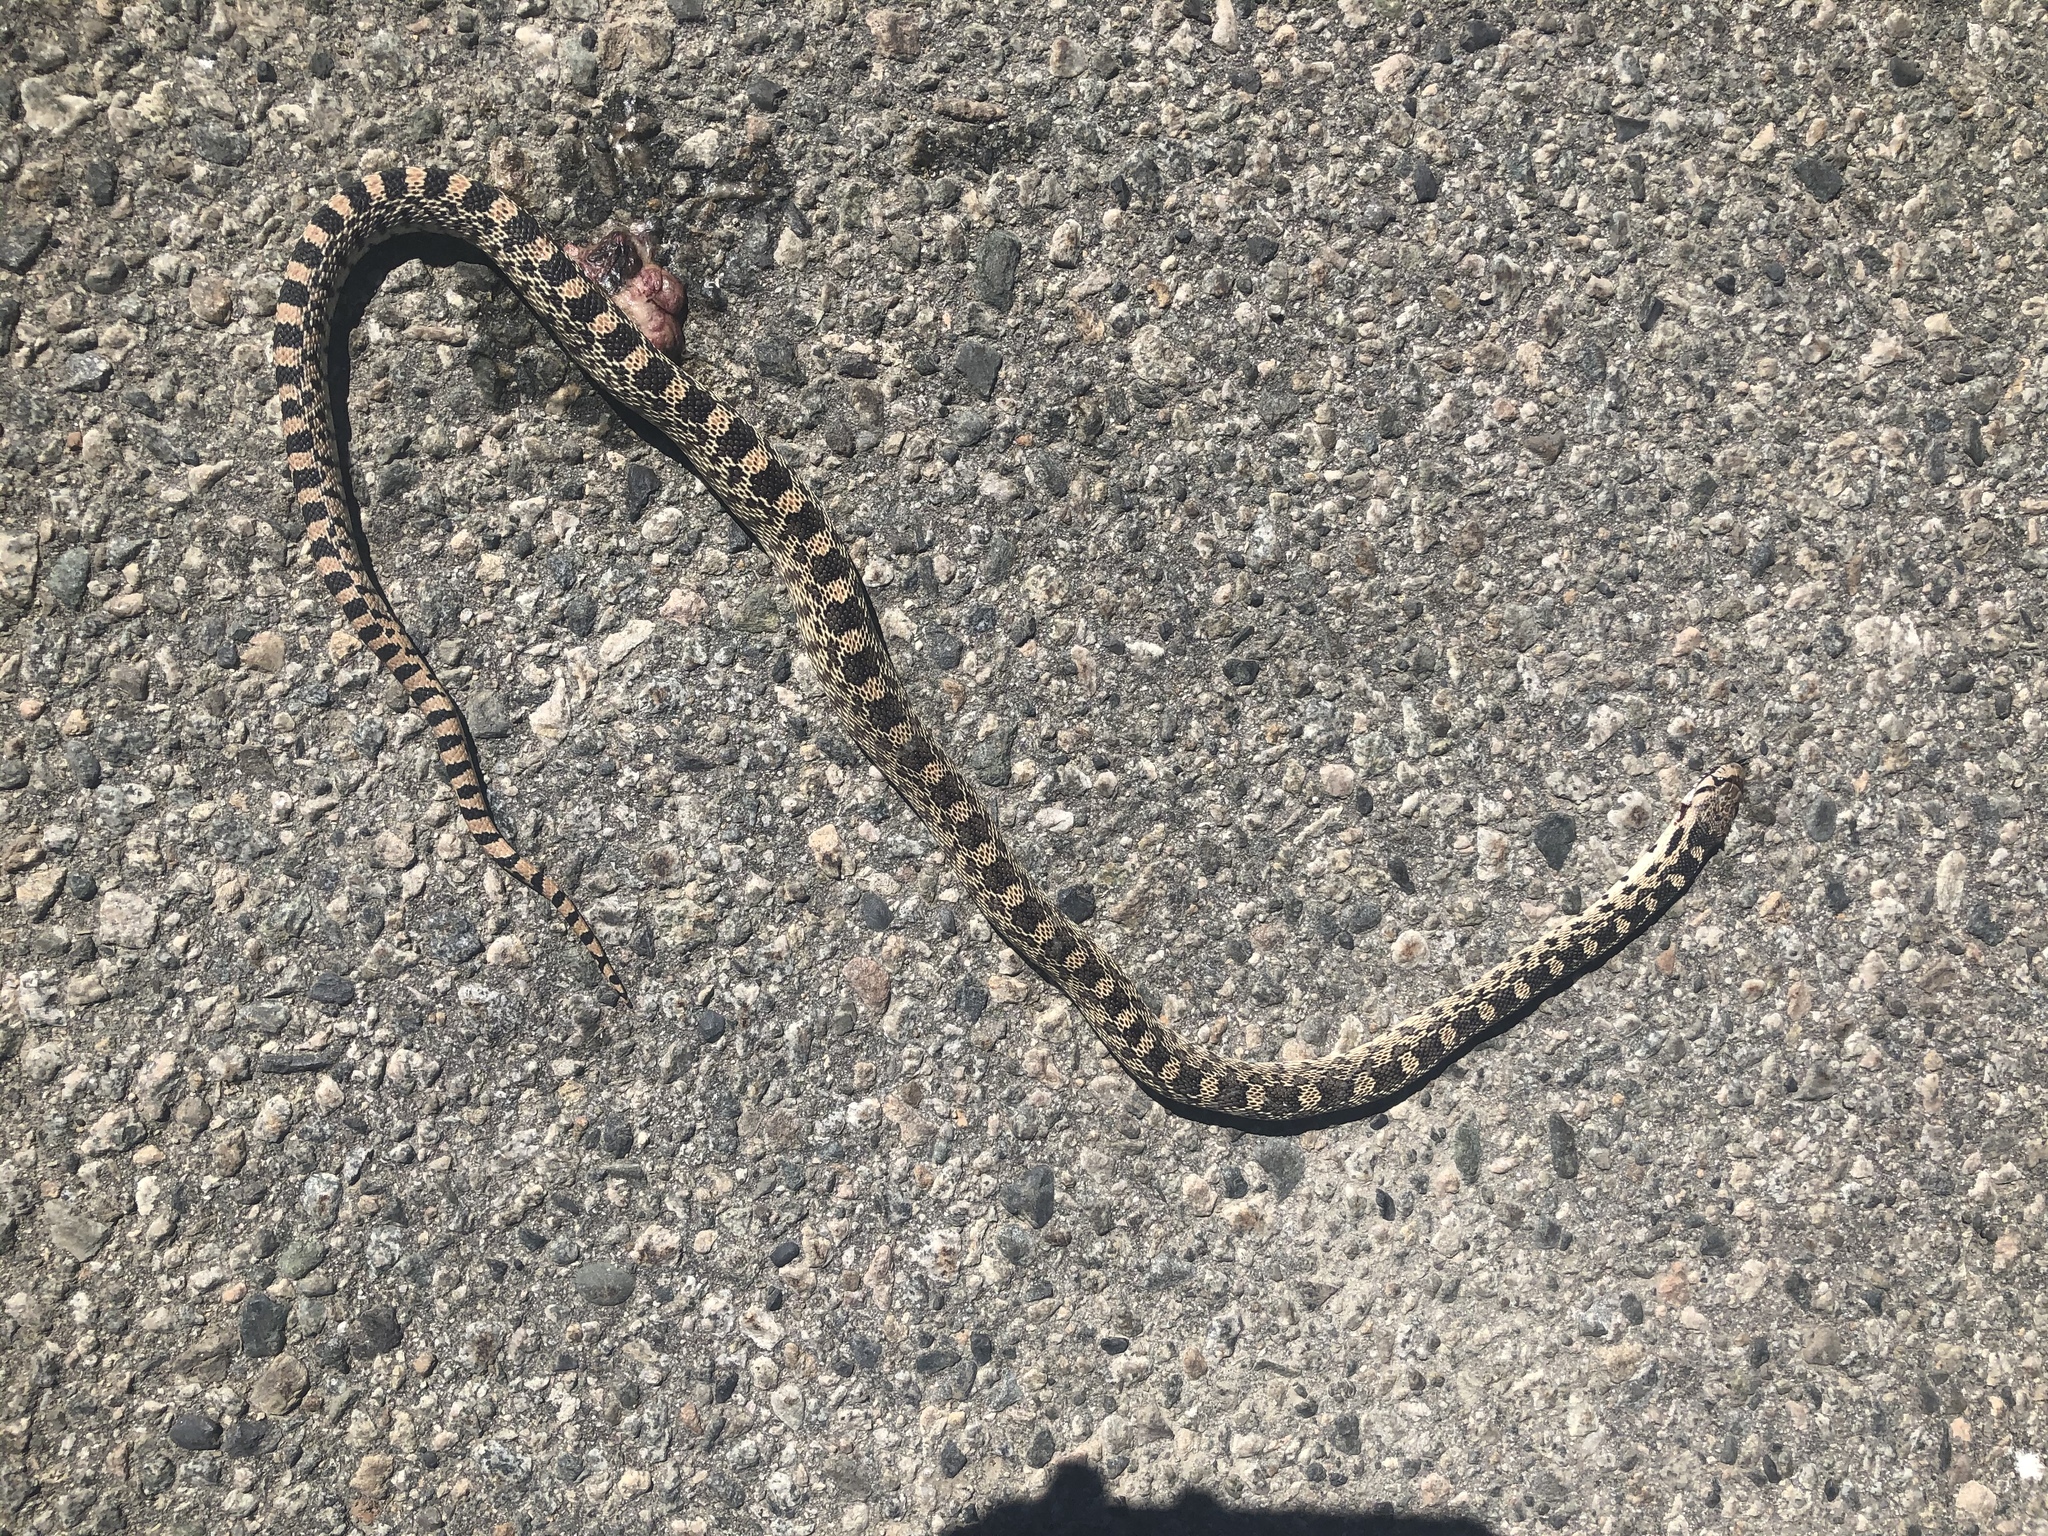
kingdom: Animalia
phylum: Chordata
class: Squamata
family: Colubridae
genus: Pituophis
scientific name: Pituophis catenifer
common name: Gopher snake
